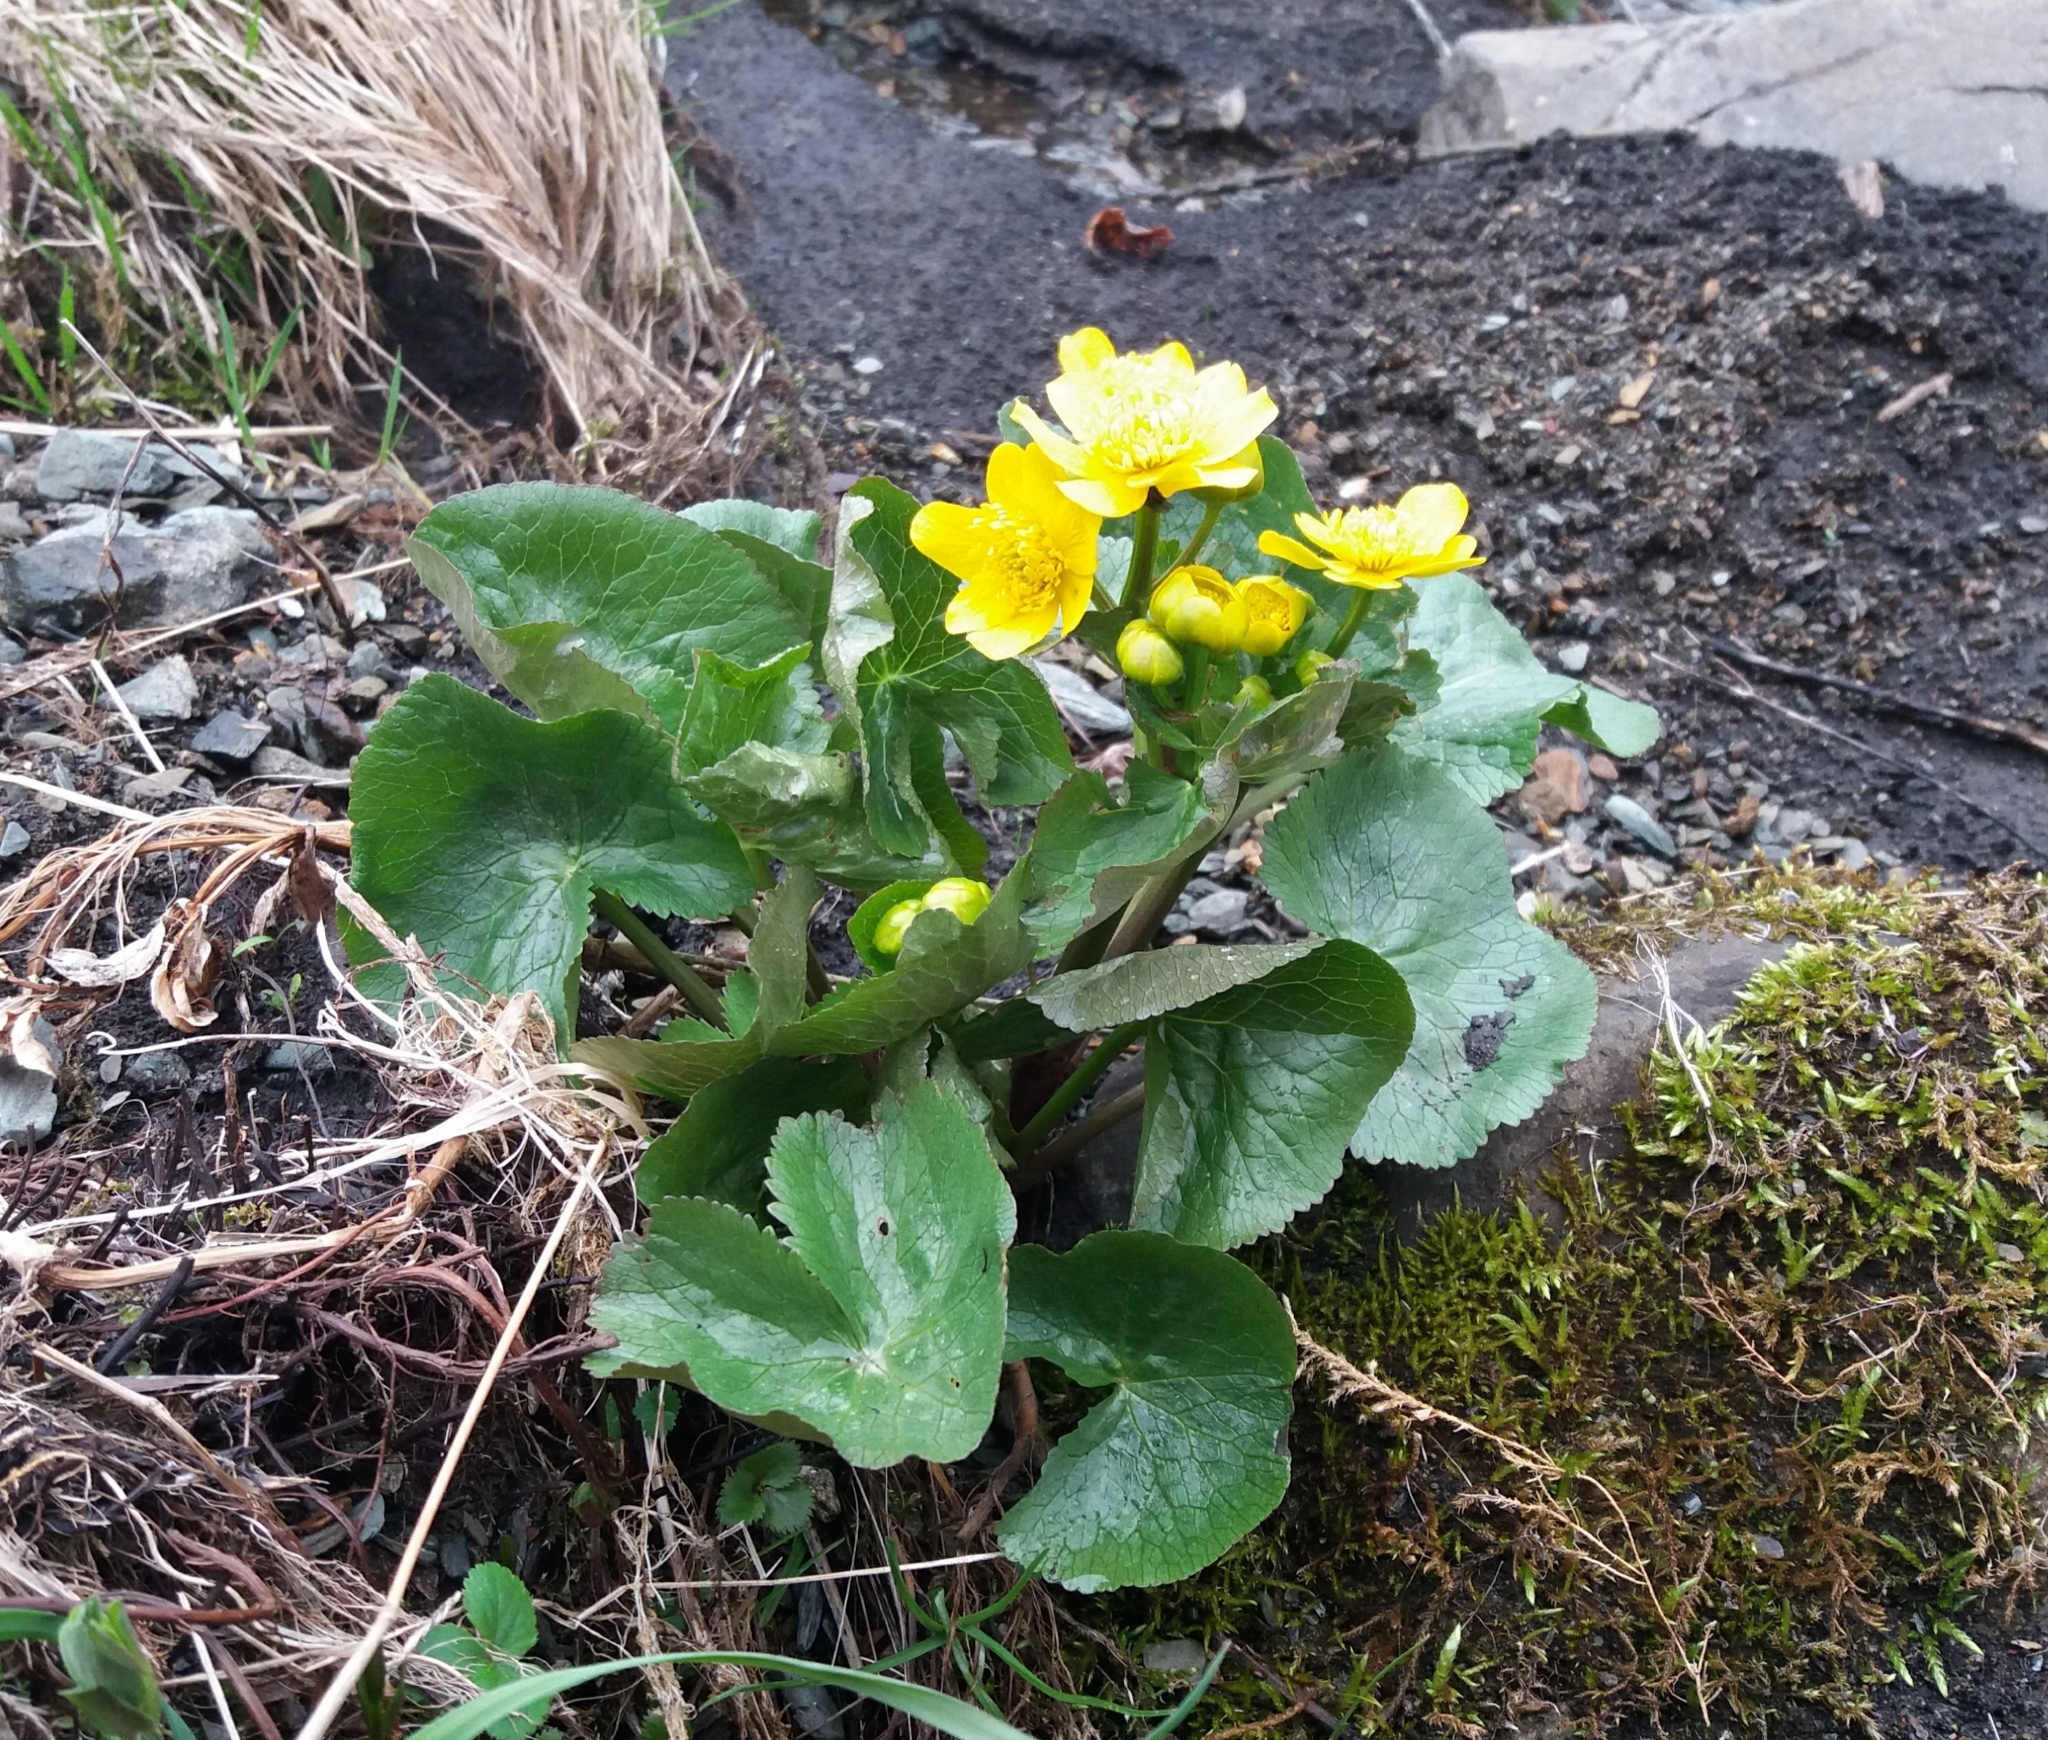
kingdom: Plantae
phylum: Tracheophyta
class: Magnoliopsida
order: Ranunculales
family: Ranunculaceae
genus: Caltha
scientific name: Caltha palustris
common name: Marsh marigold
